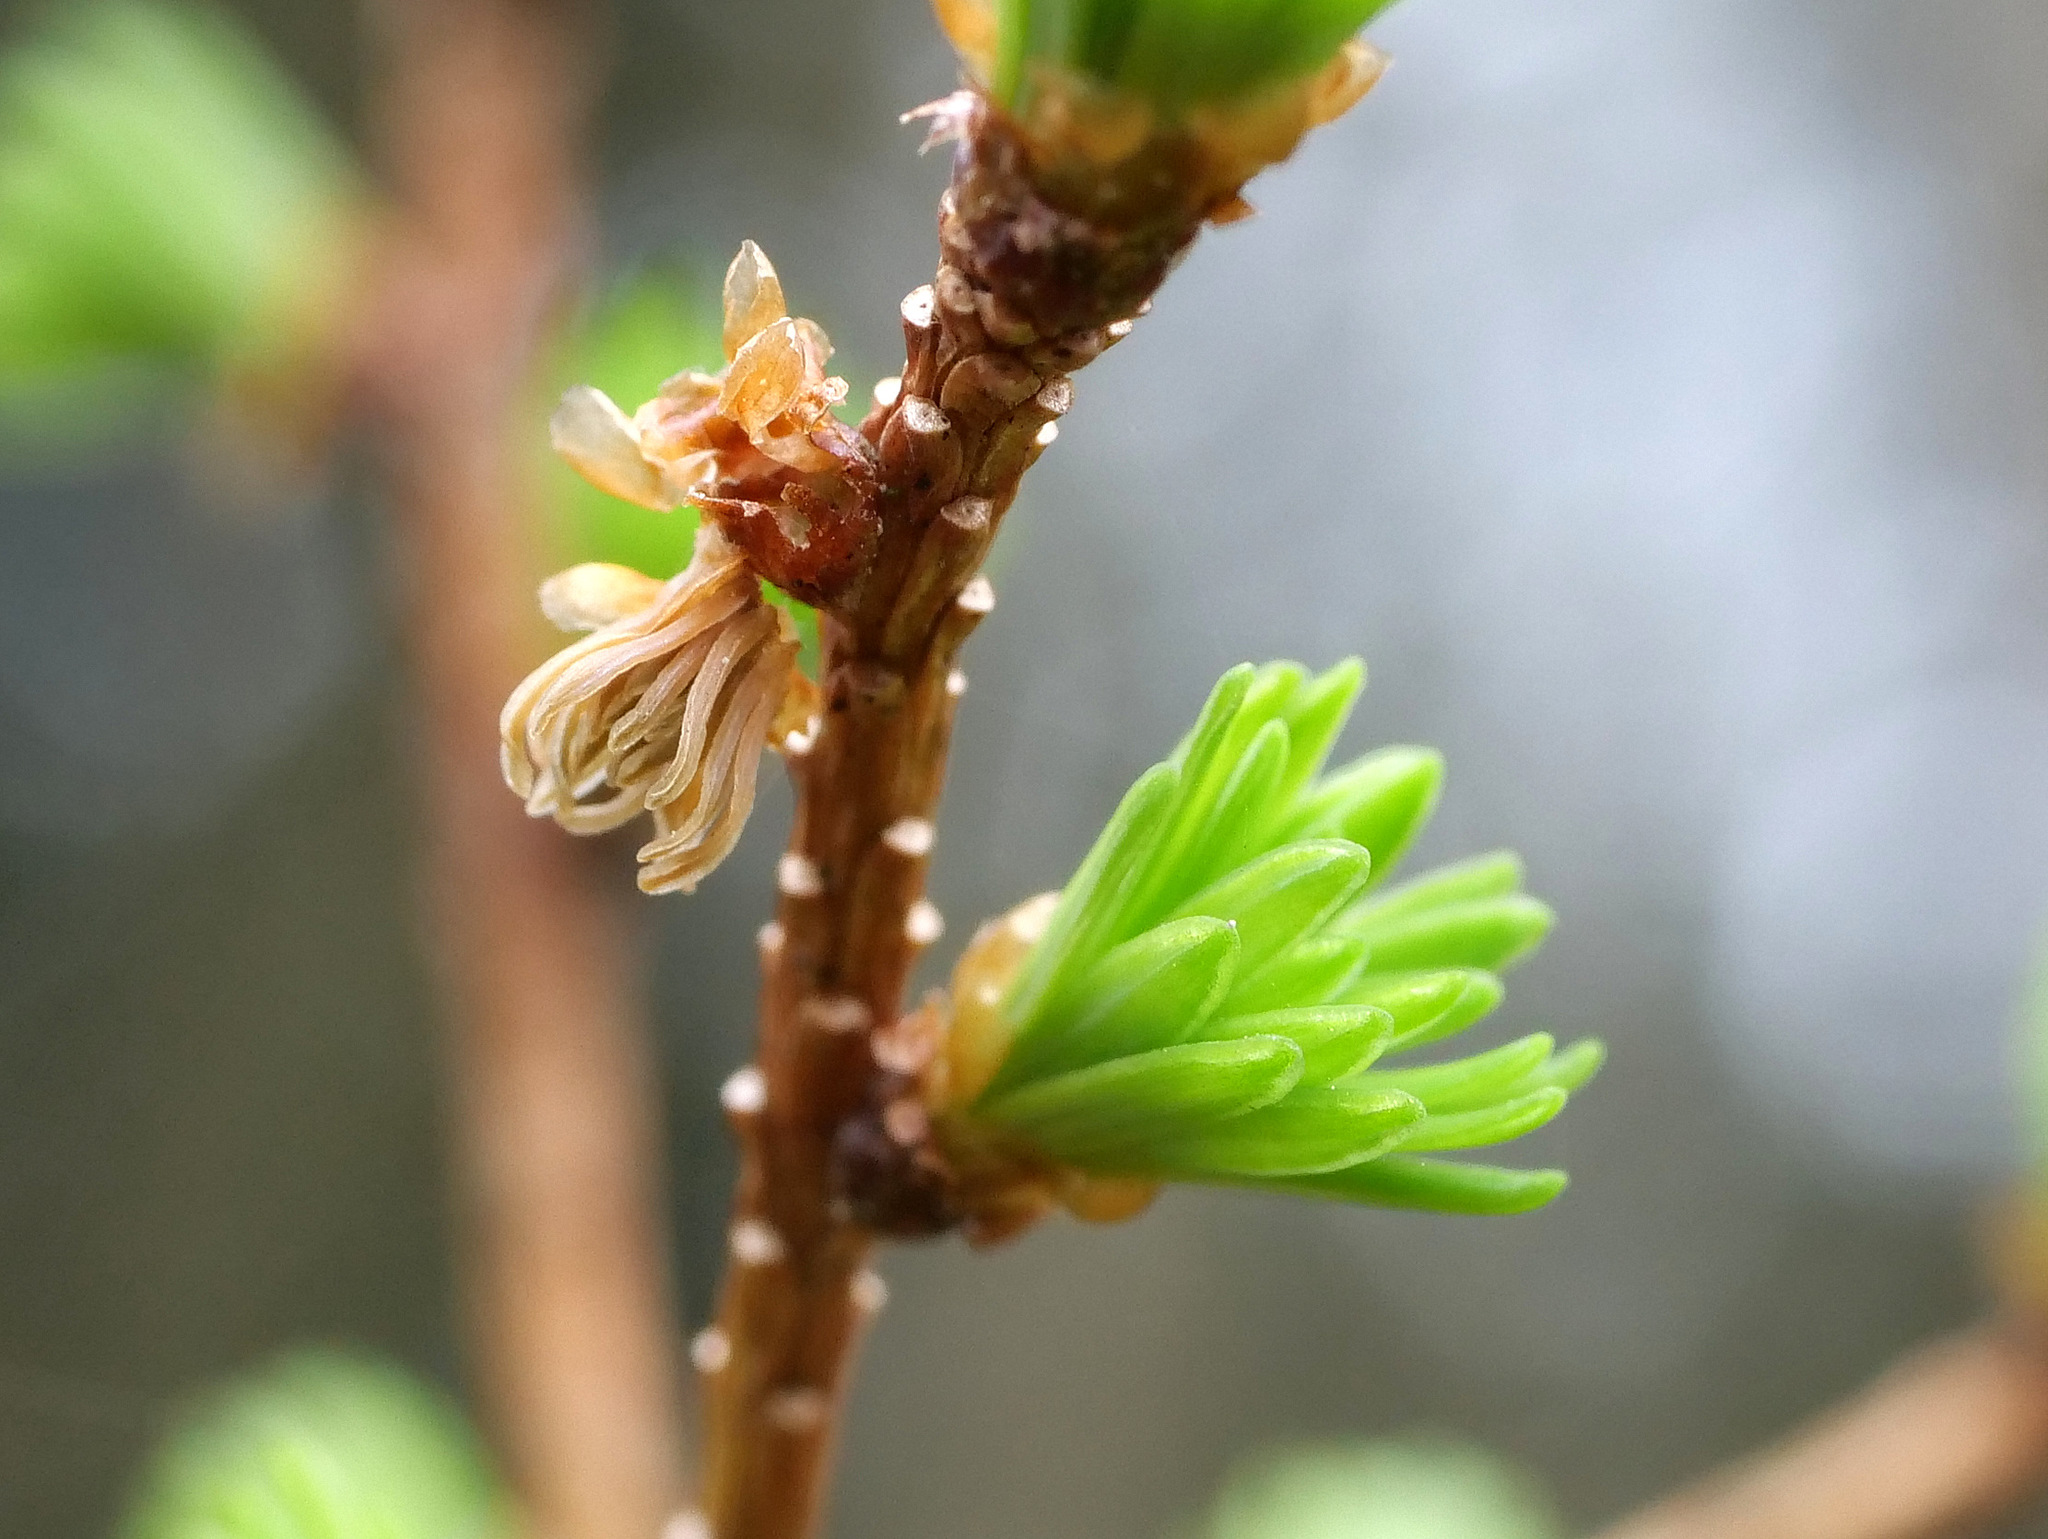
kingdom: Plantae
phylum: Tracheophyta
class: Pinopsida
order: Pinales
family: Pinaceae
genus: Larix
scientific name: Larix decidua
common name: European larch
